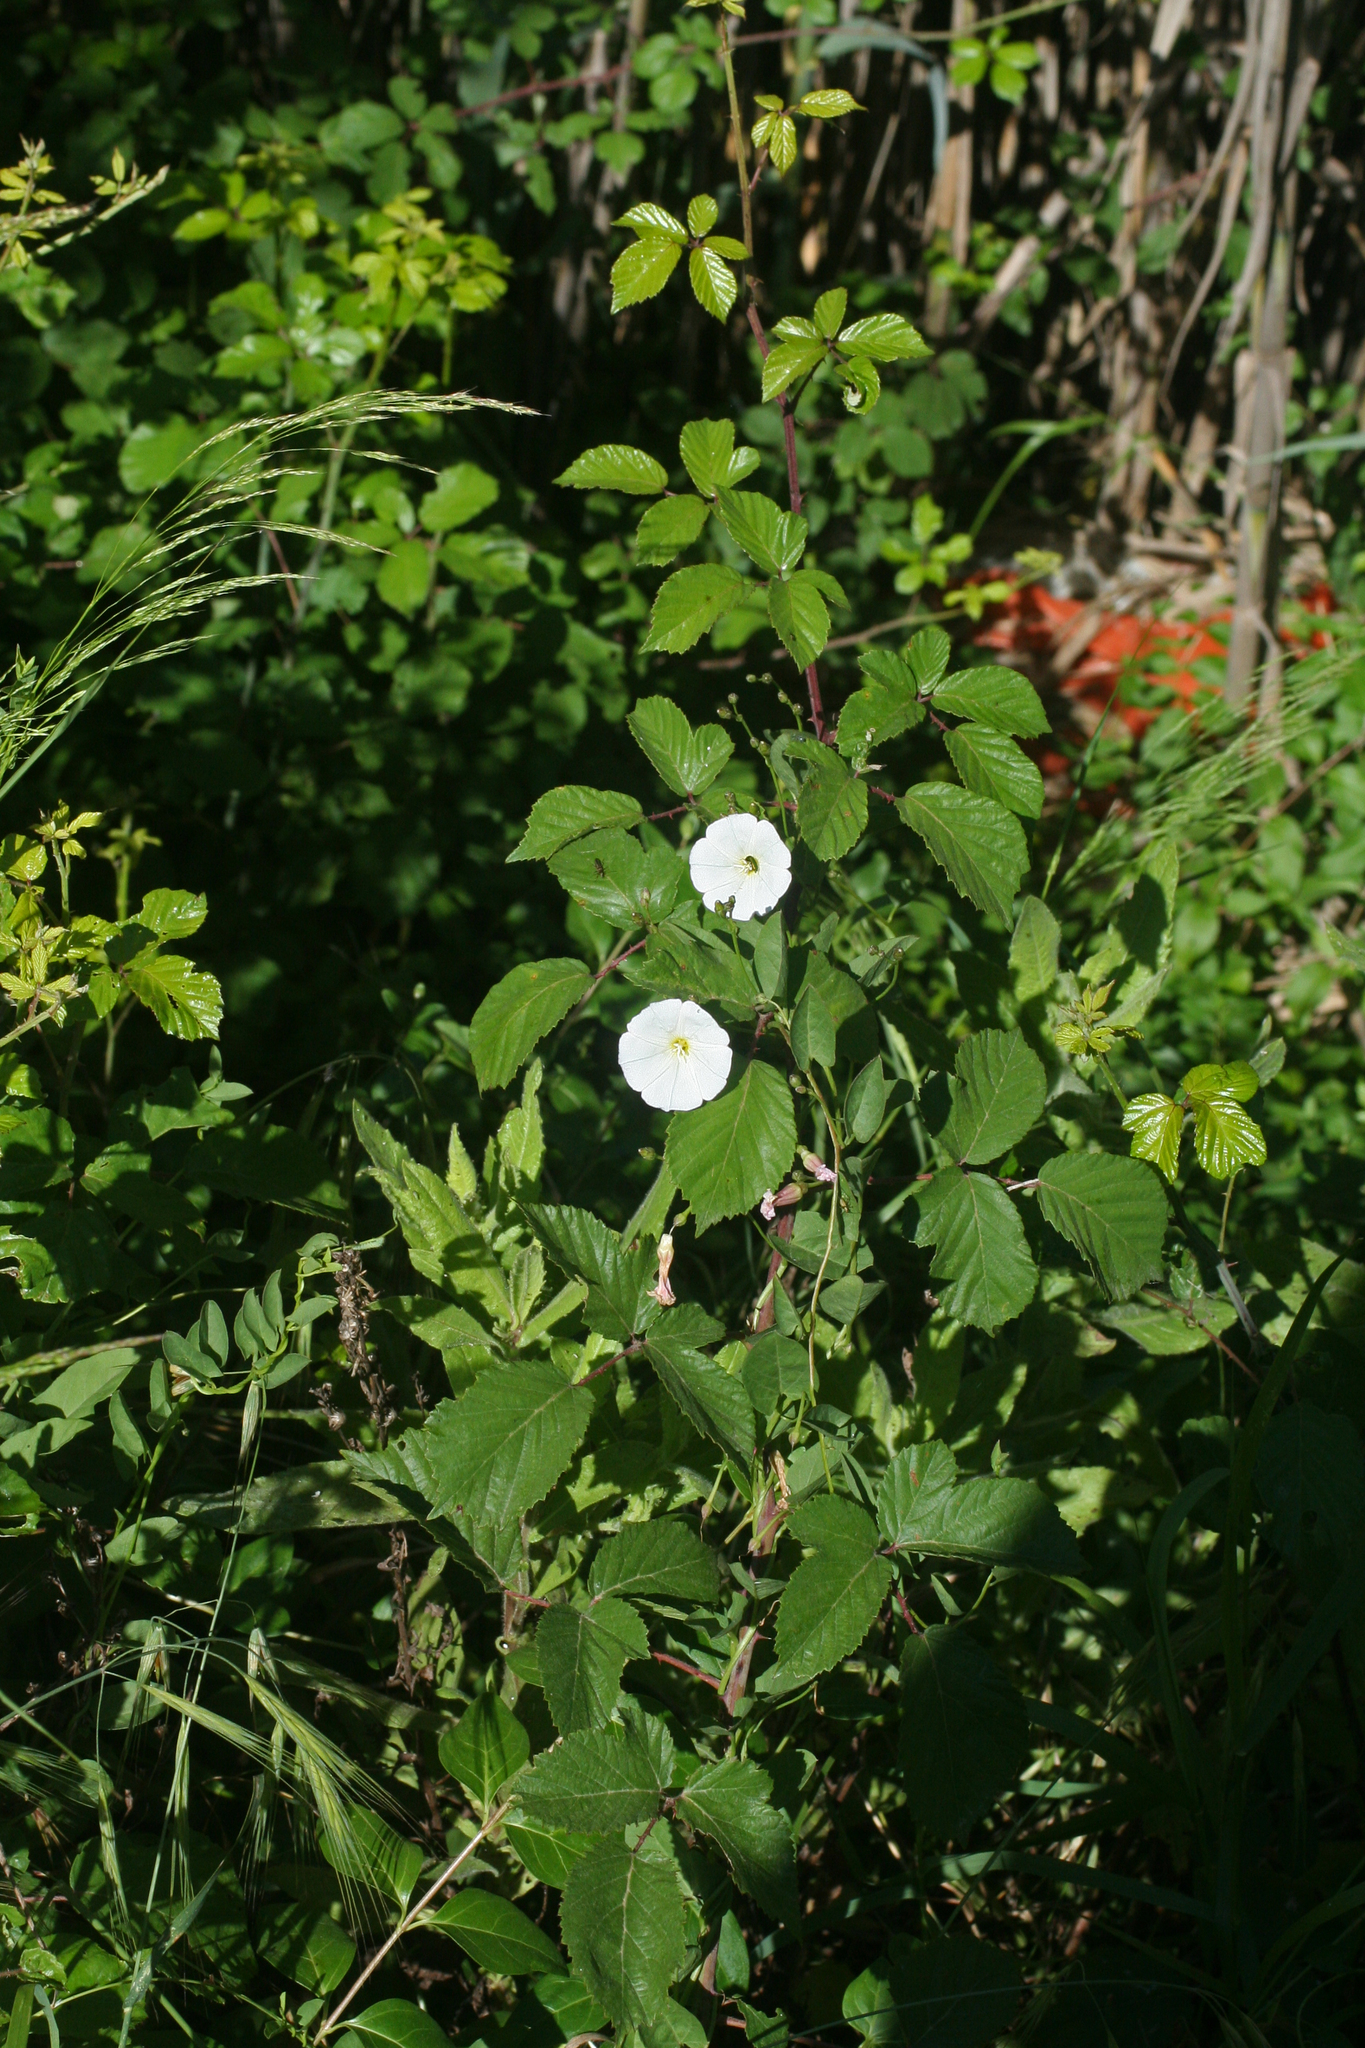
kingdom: Plantae
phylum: Tracheophyta
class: Magnoliopsida
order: Solanales
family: Convolvulaceae
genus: Convolvulus
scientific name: Convolvulus arvensis
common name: Field bindweed
